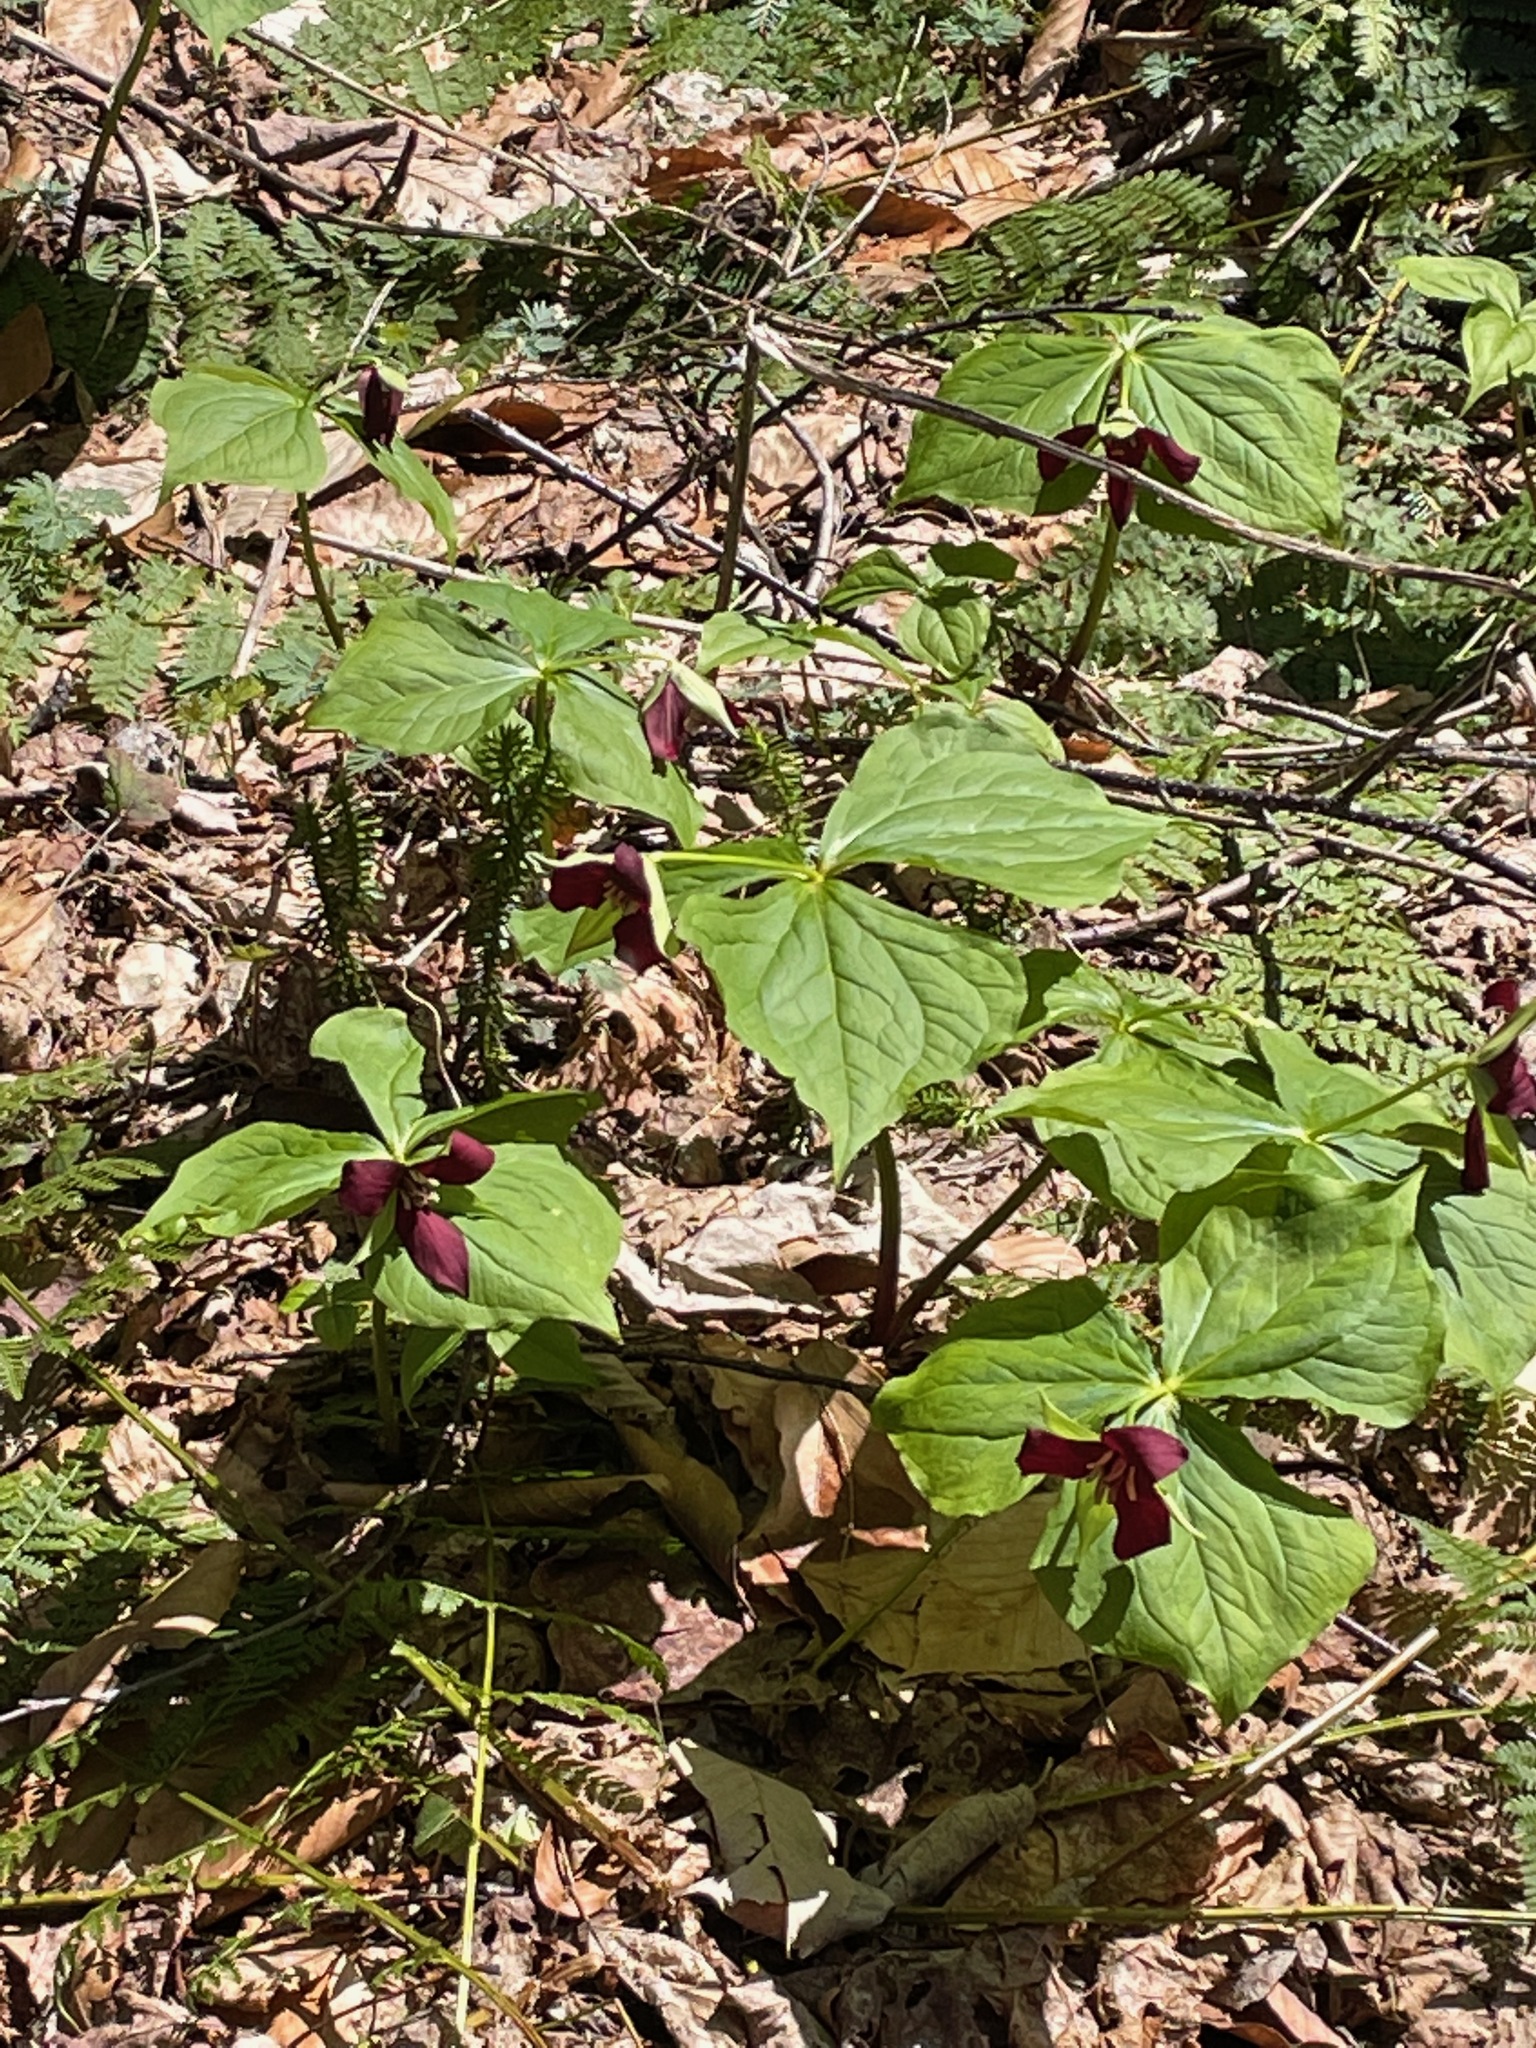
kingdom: Plantae
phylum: Tracheophyta
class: Liliopsida
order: Liliales
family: Melanthiaceae
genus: Trillium
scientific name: Trillium erectum
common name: Purple trillium
